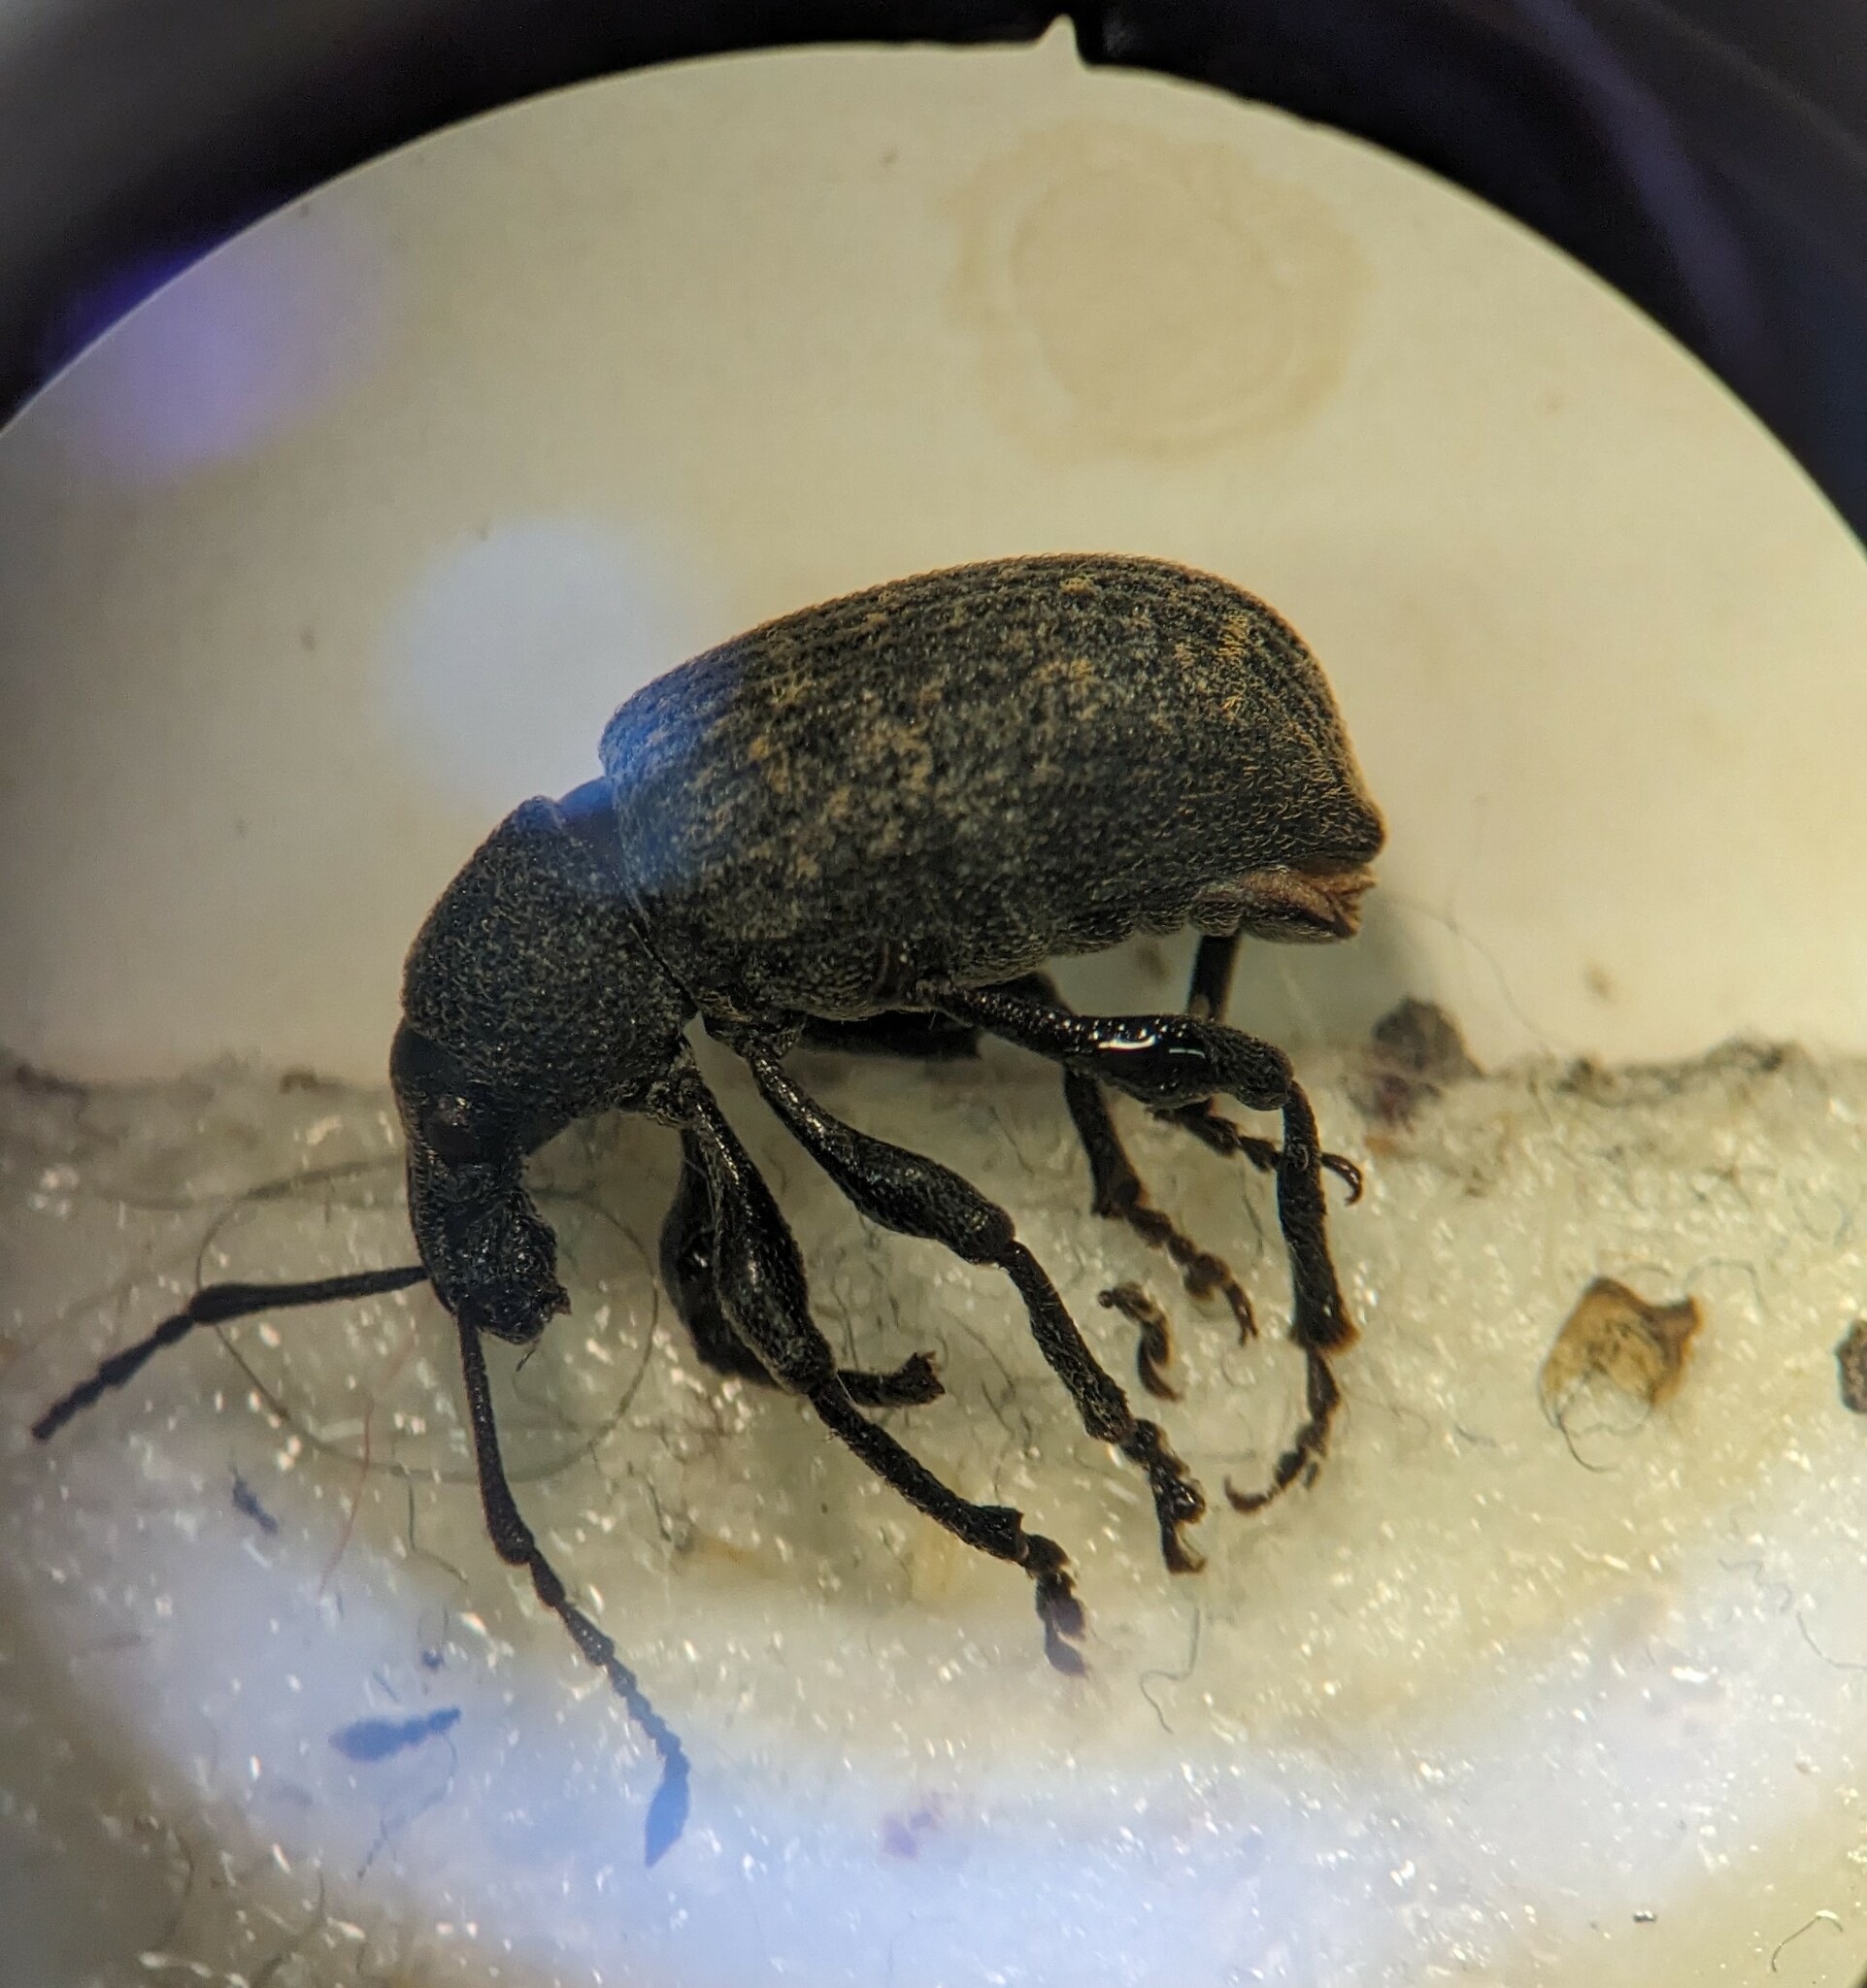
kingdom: Animalia
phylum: Arthropoda
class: Insecta
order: Coleoptera
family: Curculionidae
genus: Otiorhynchus
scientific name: Otiorhynchus sulcatus
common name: Black vine weevil
